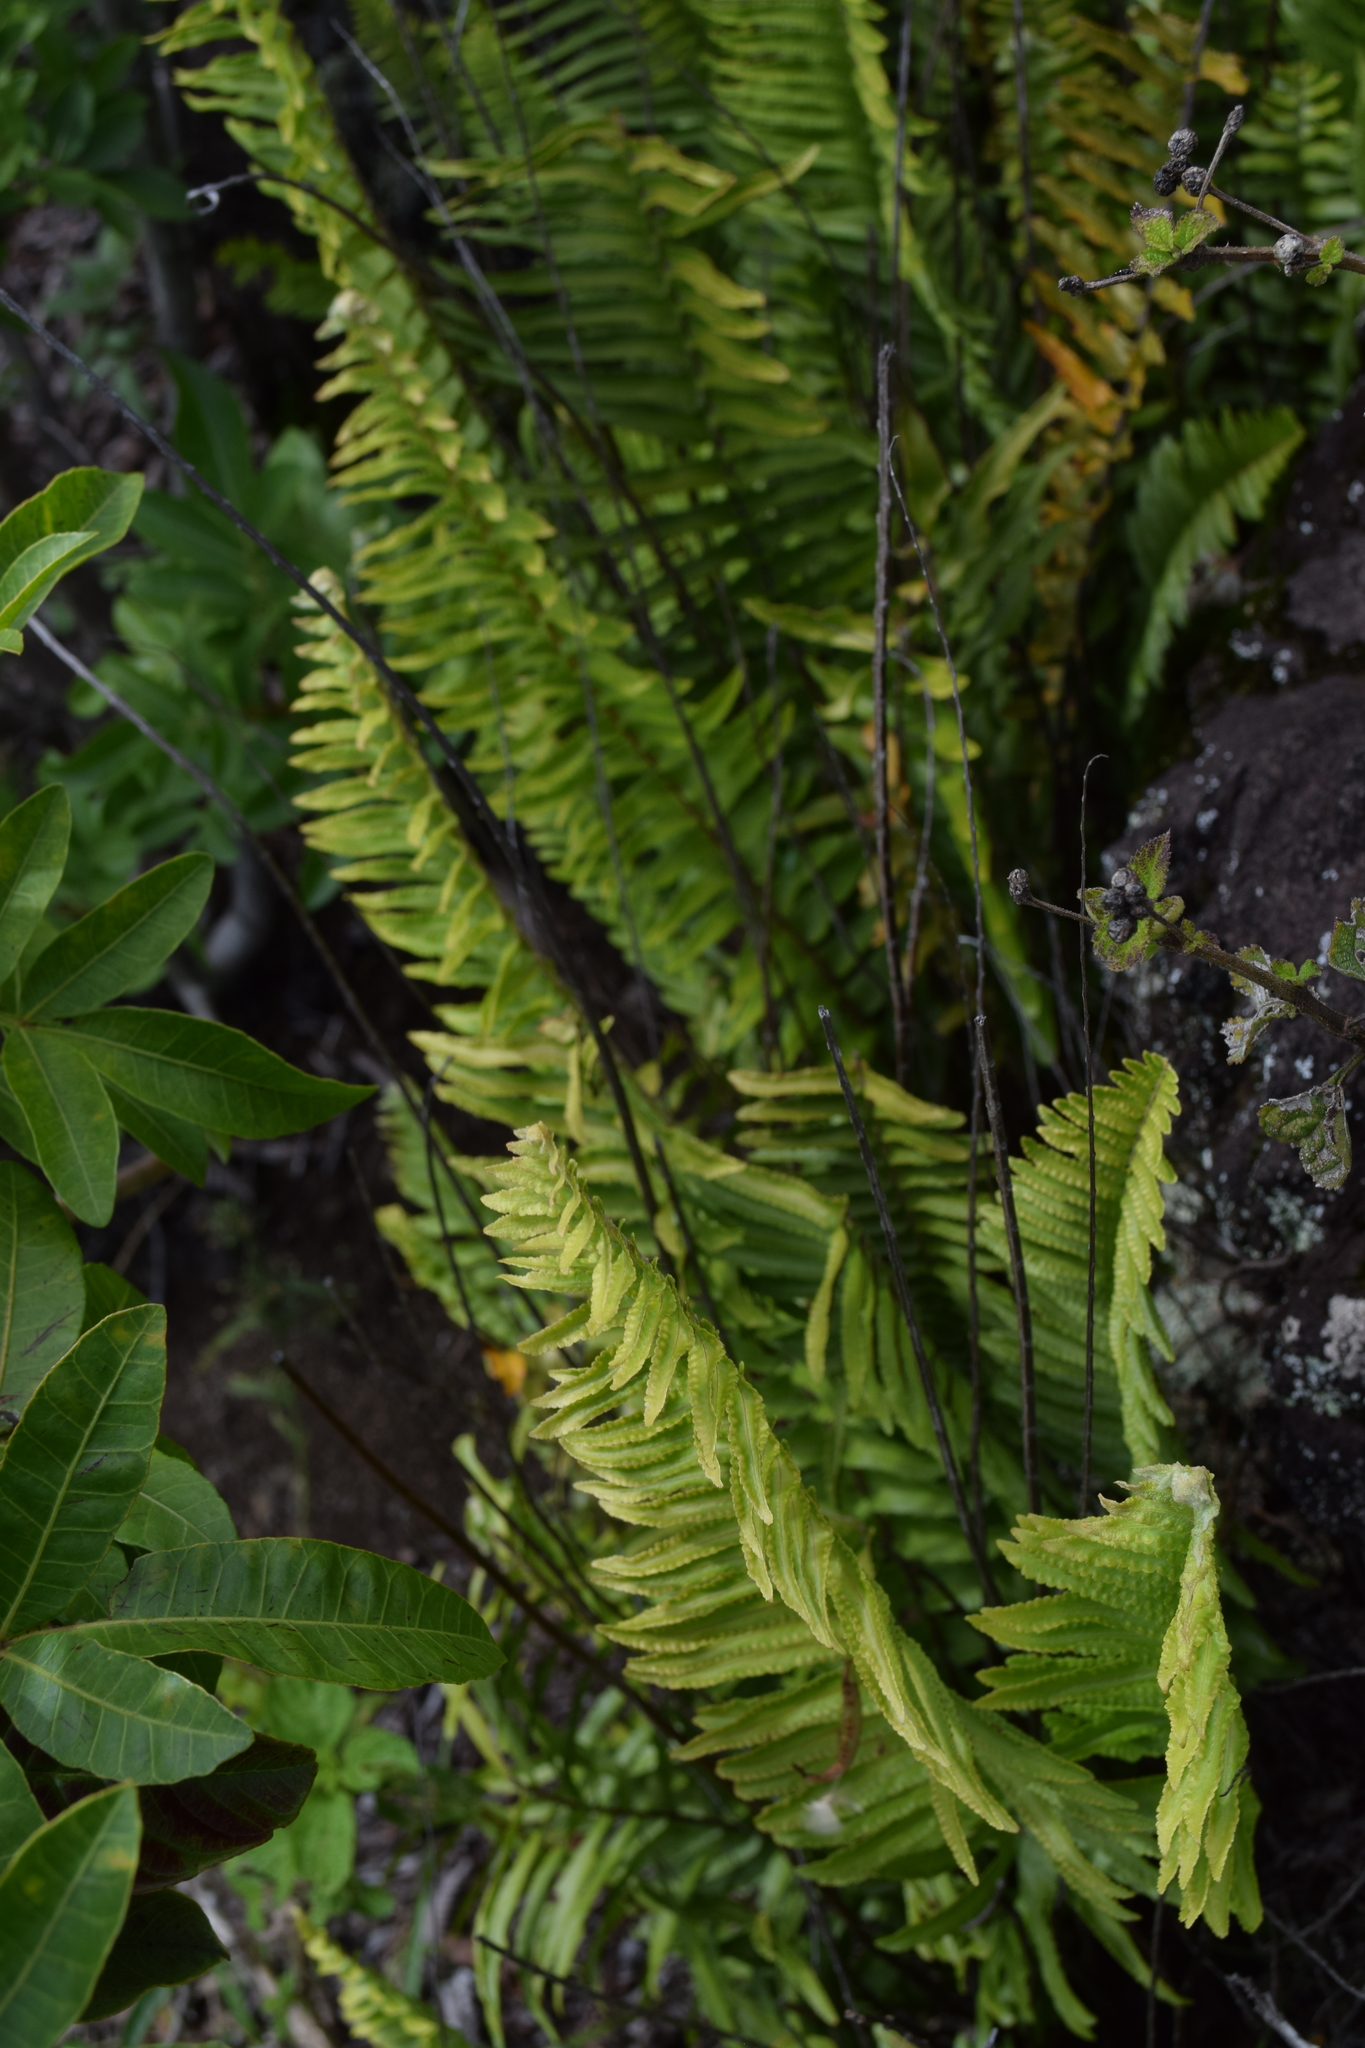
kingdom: Plantae
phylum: Tracheophyta
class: Polypodiopsida
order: Polypodiales
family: Nephrolepidaceae
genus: Nephrolepis
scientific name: Nephrolepis cordifolia
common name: Narrow swordfern
